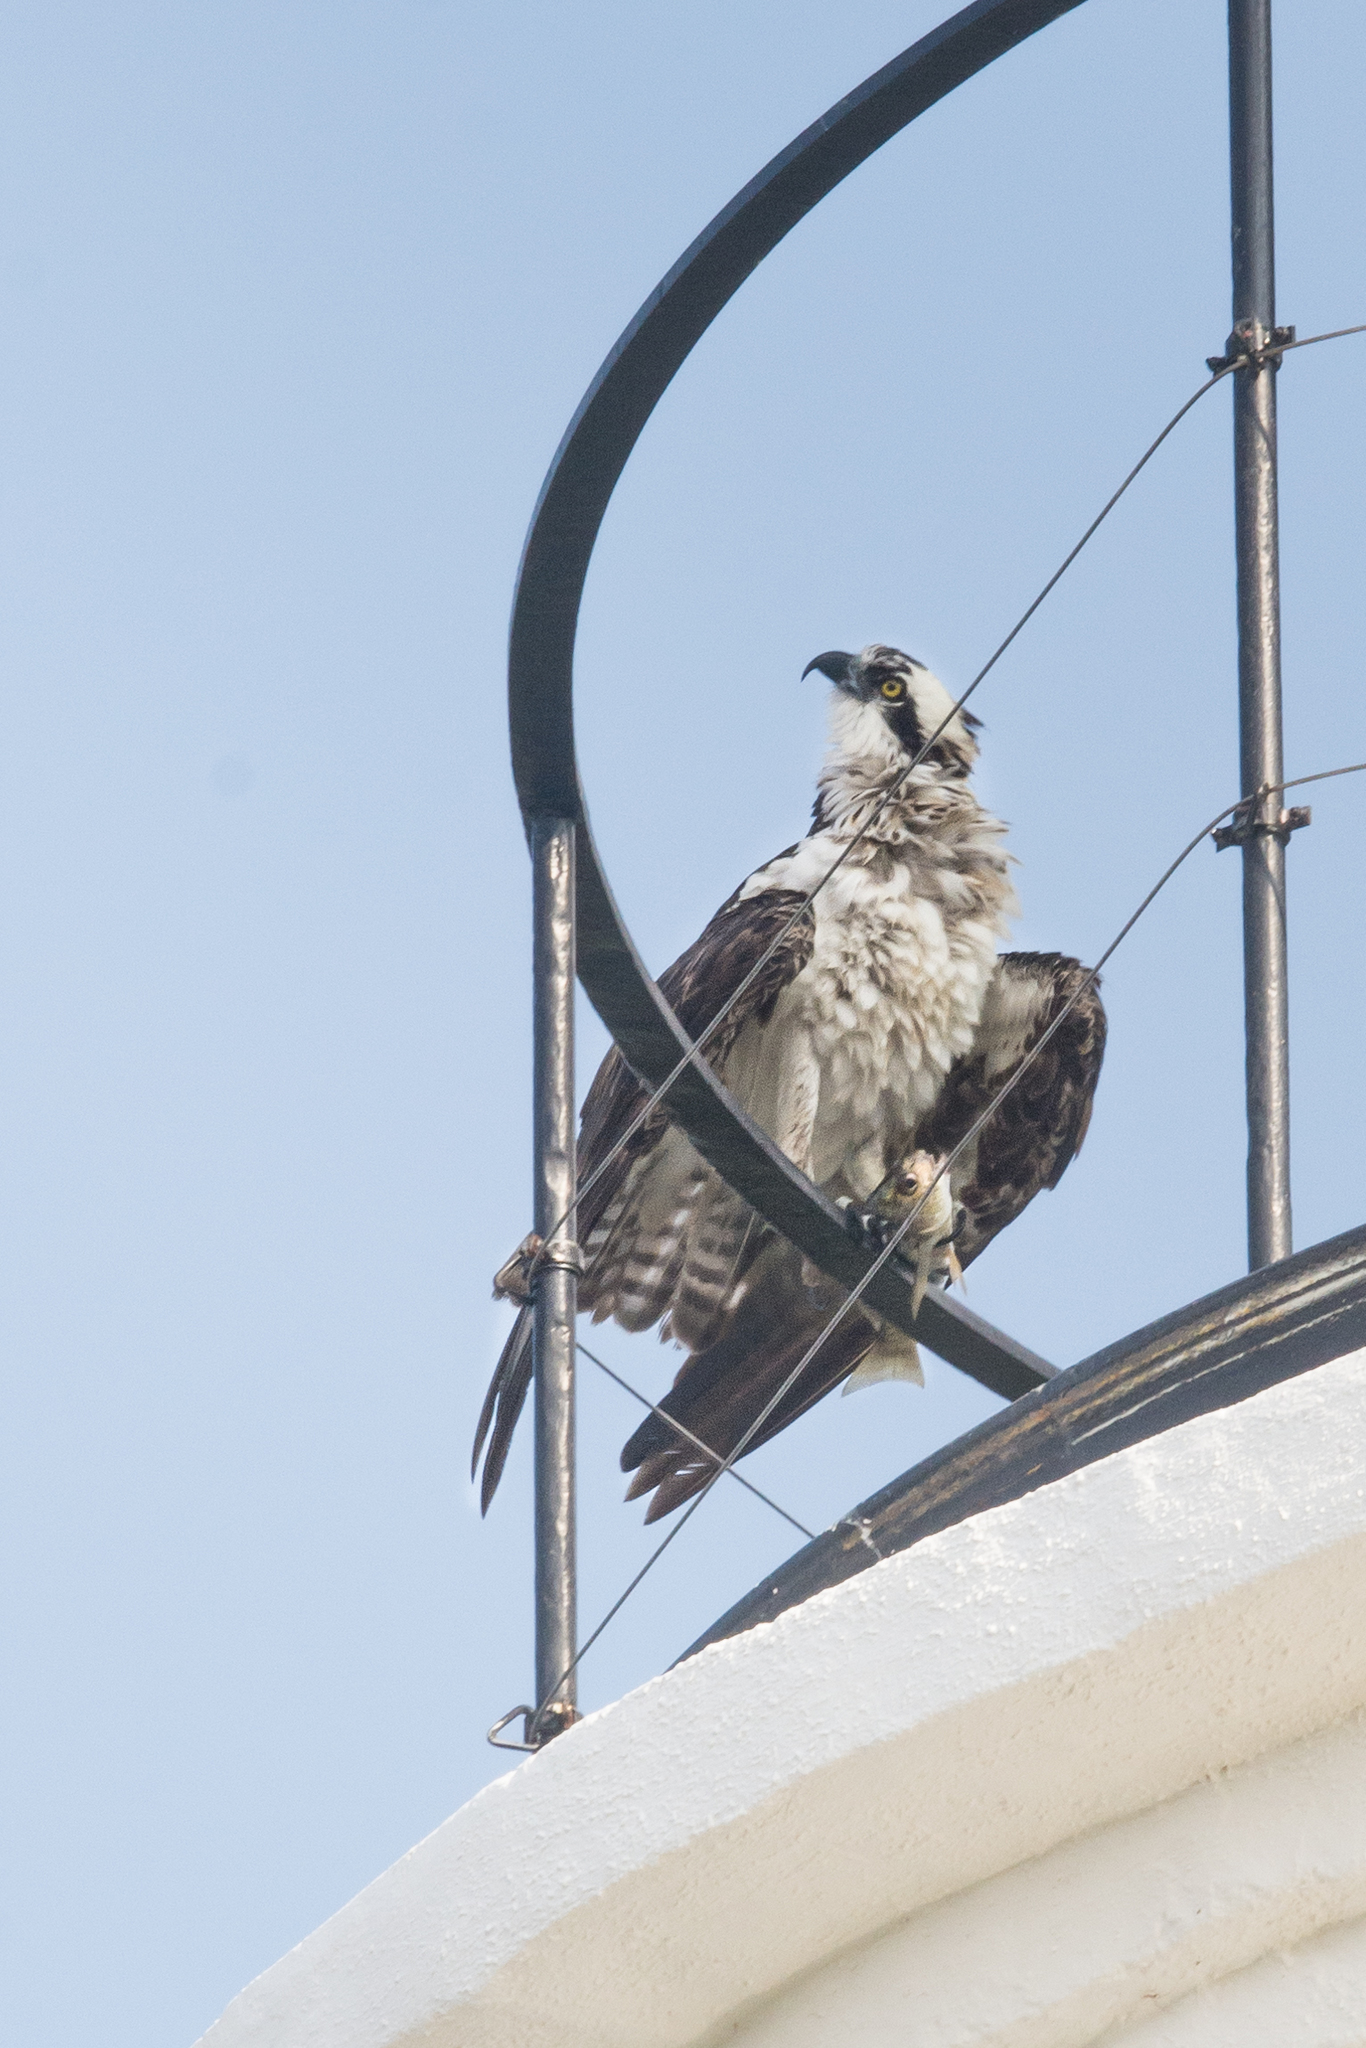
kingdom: Animalia
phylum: Chordata
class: Aves
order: Accipitriformes
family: Pandionidae
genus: Pandion
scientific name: Pandion haliaetus
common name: Osprey
